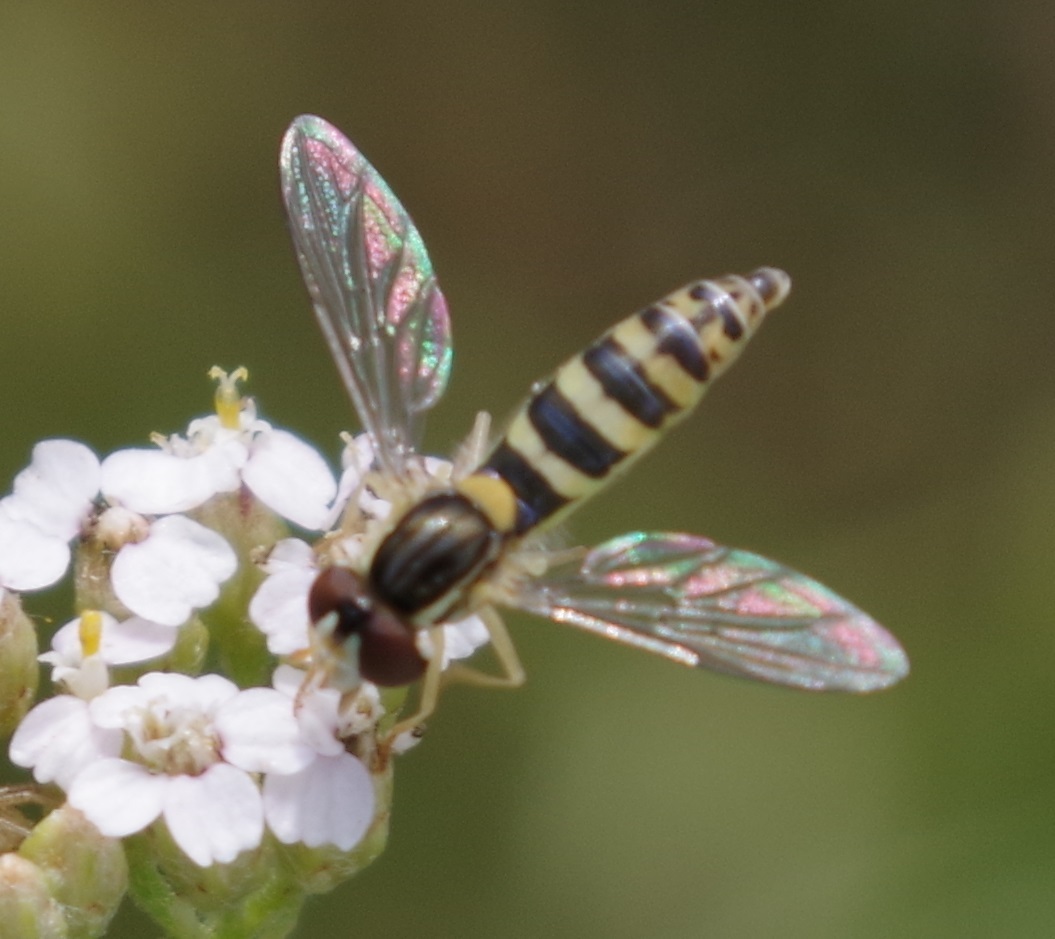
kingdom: Animalia
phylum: Arthropoda
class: Insecta
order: Diptera
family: Syrphidae
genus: Sphaerophoria
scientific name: Sphaerophoria
